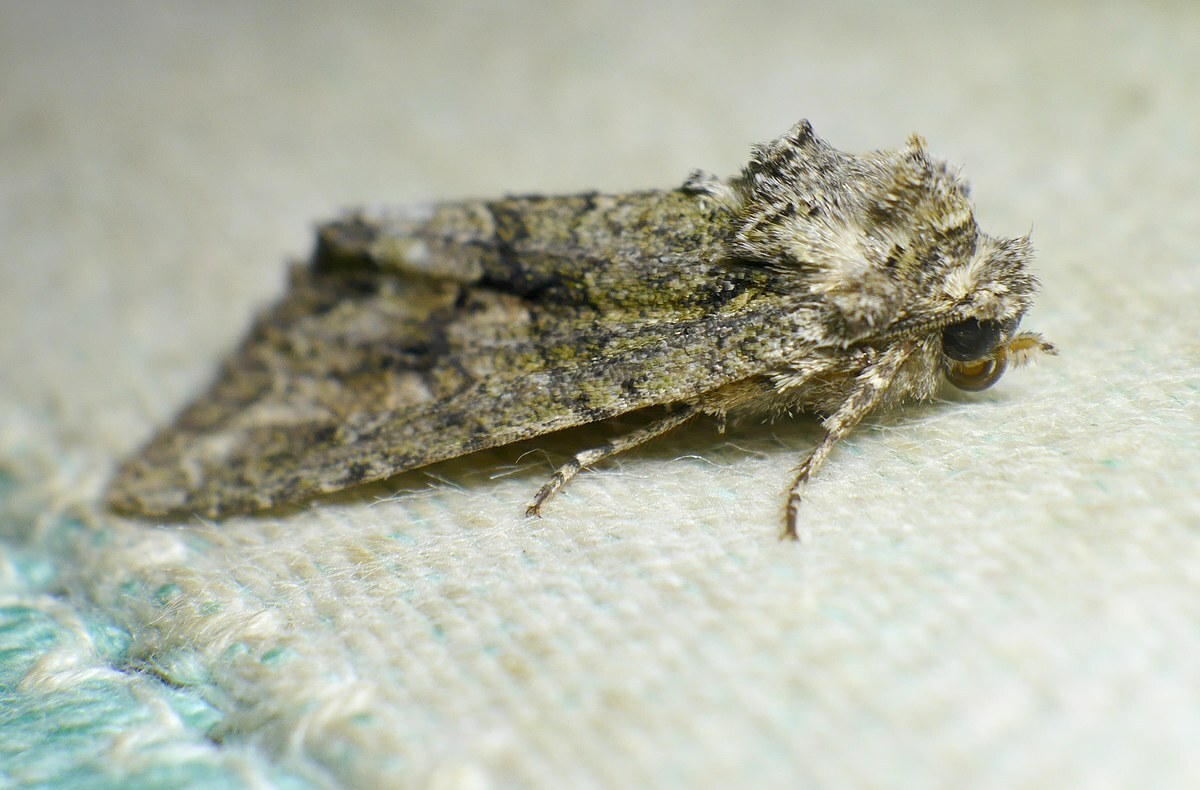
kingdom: Animalia
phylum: Arthropoda
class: Insecta
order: Lepidoptera
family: Noctuidae
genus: Dryobotodes
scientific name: Dryobotodes eremita
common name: Brindled green
